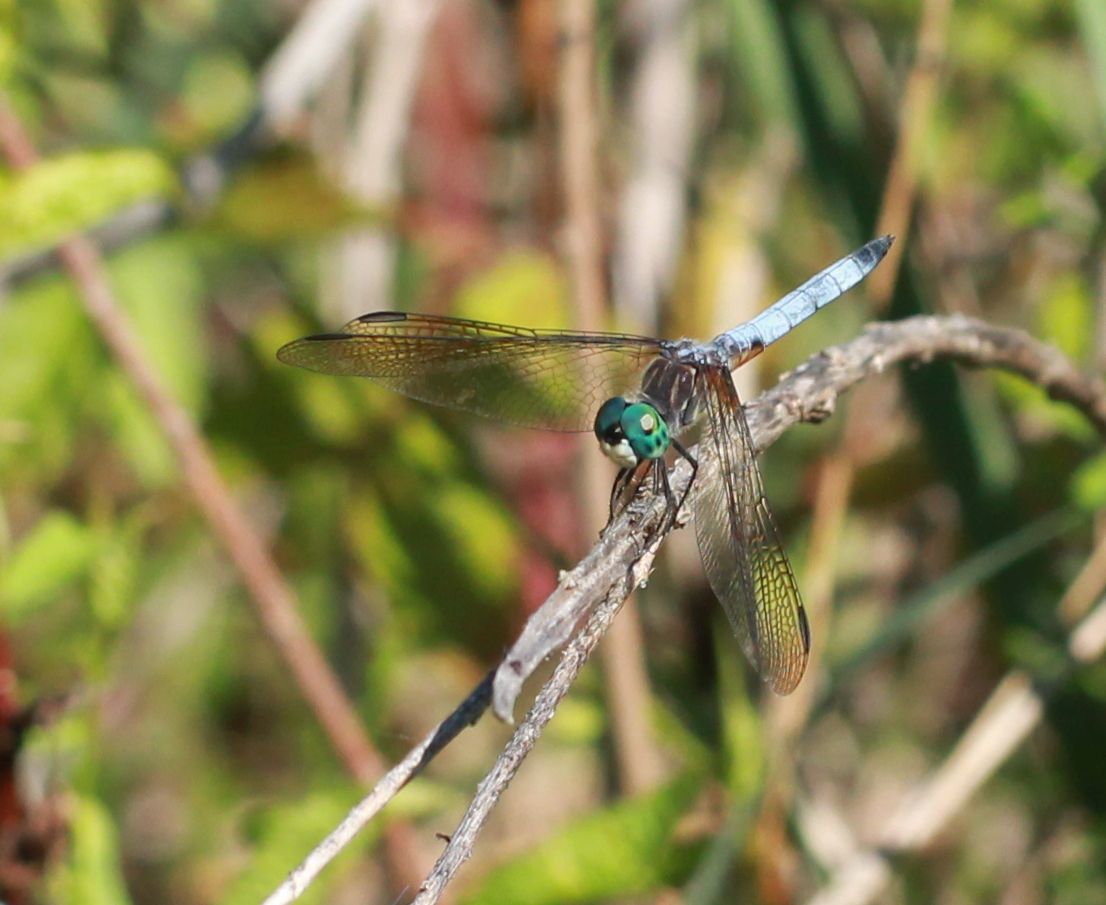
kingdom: Animalia
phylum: Arthropoda
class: Insecta
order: Odonata
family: Libellulidae
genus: Pachydiplax
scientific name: Pachydiplax longipennis
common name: Blue dasher
